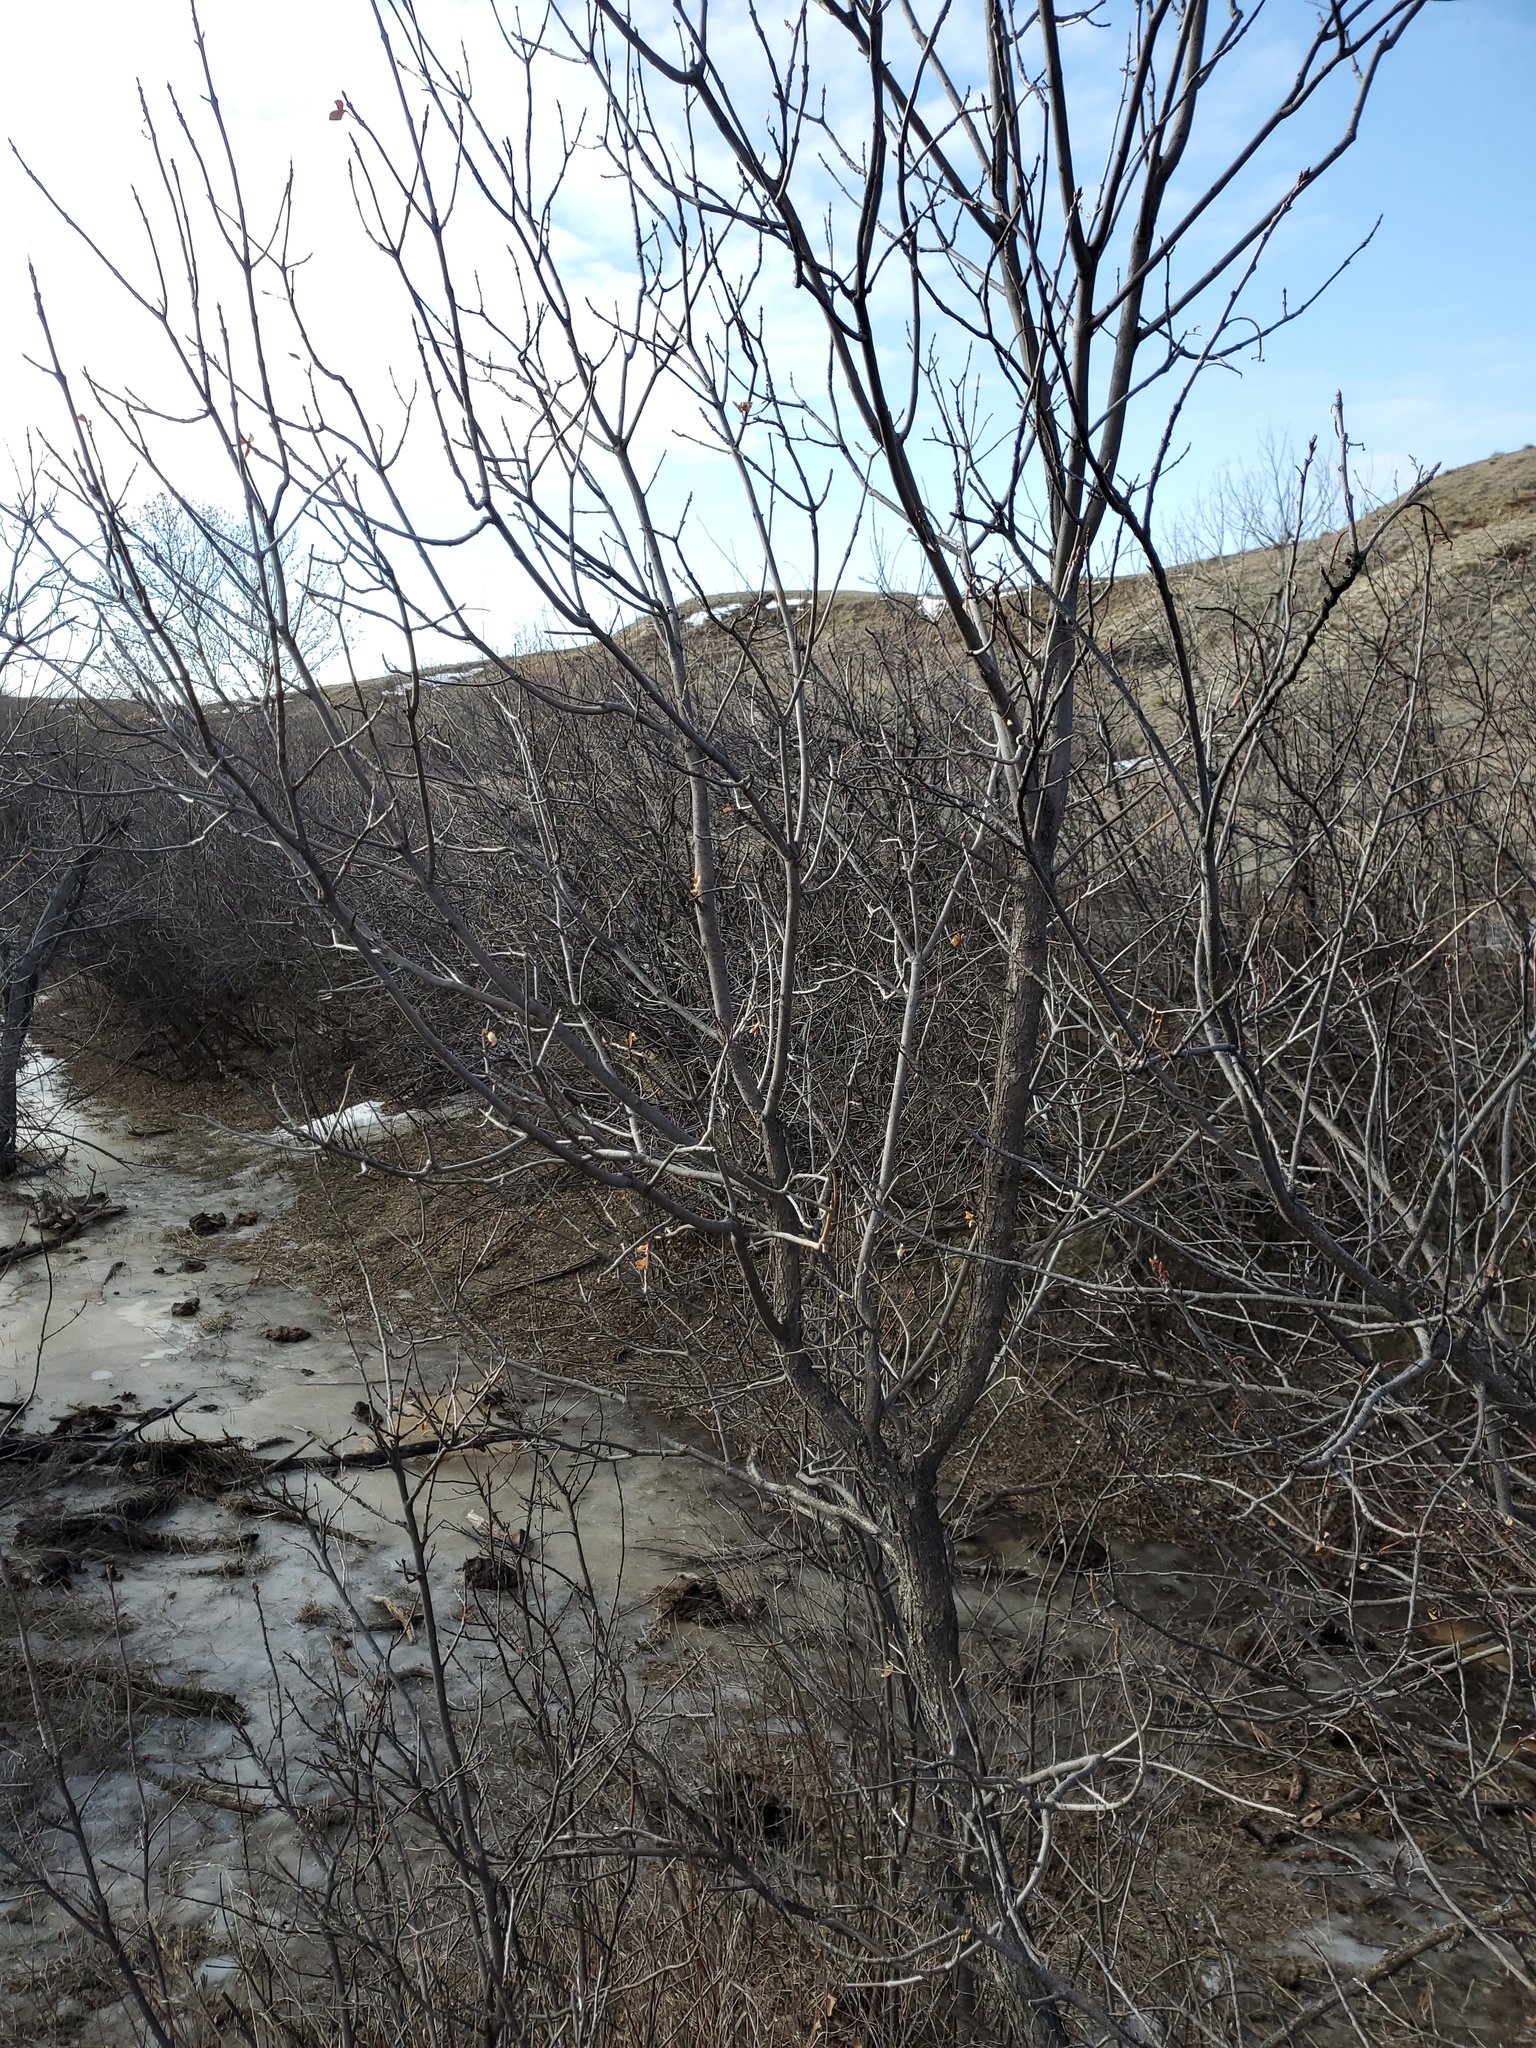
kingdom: Plantae
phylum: Tracheophyta
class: Magnoliopsida
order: Lamiales
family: Oleaceae
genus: Fraxinus
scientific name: Fraxinus pennsylvanica
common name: Green ash
